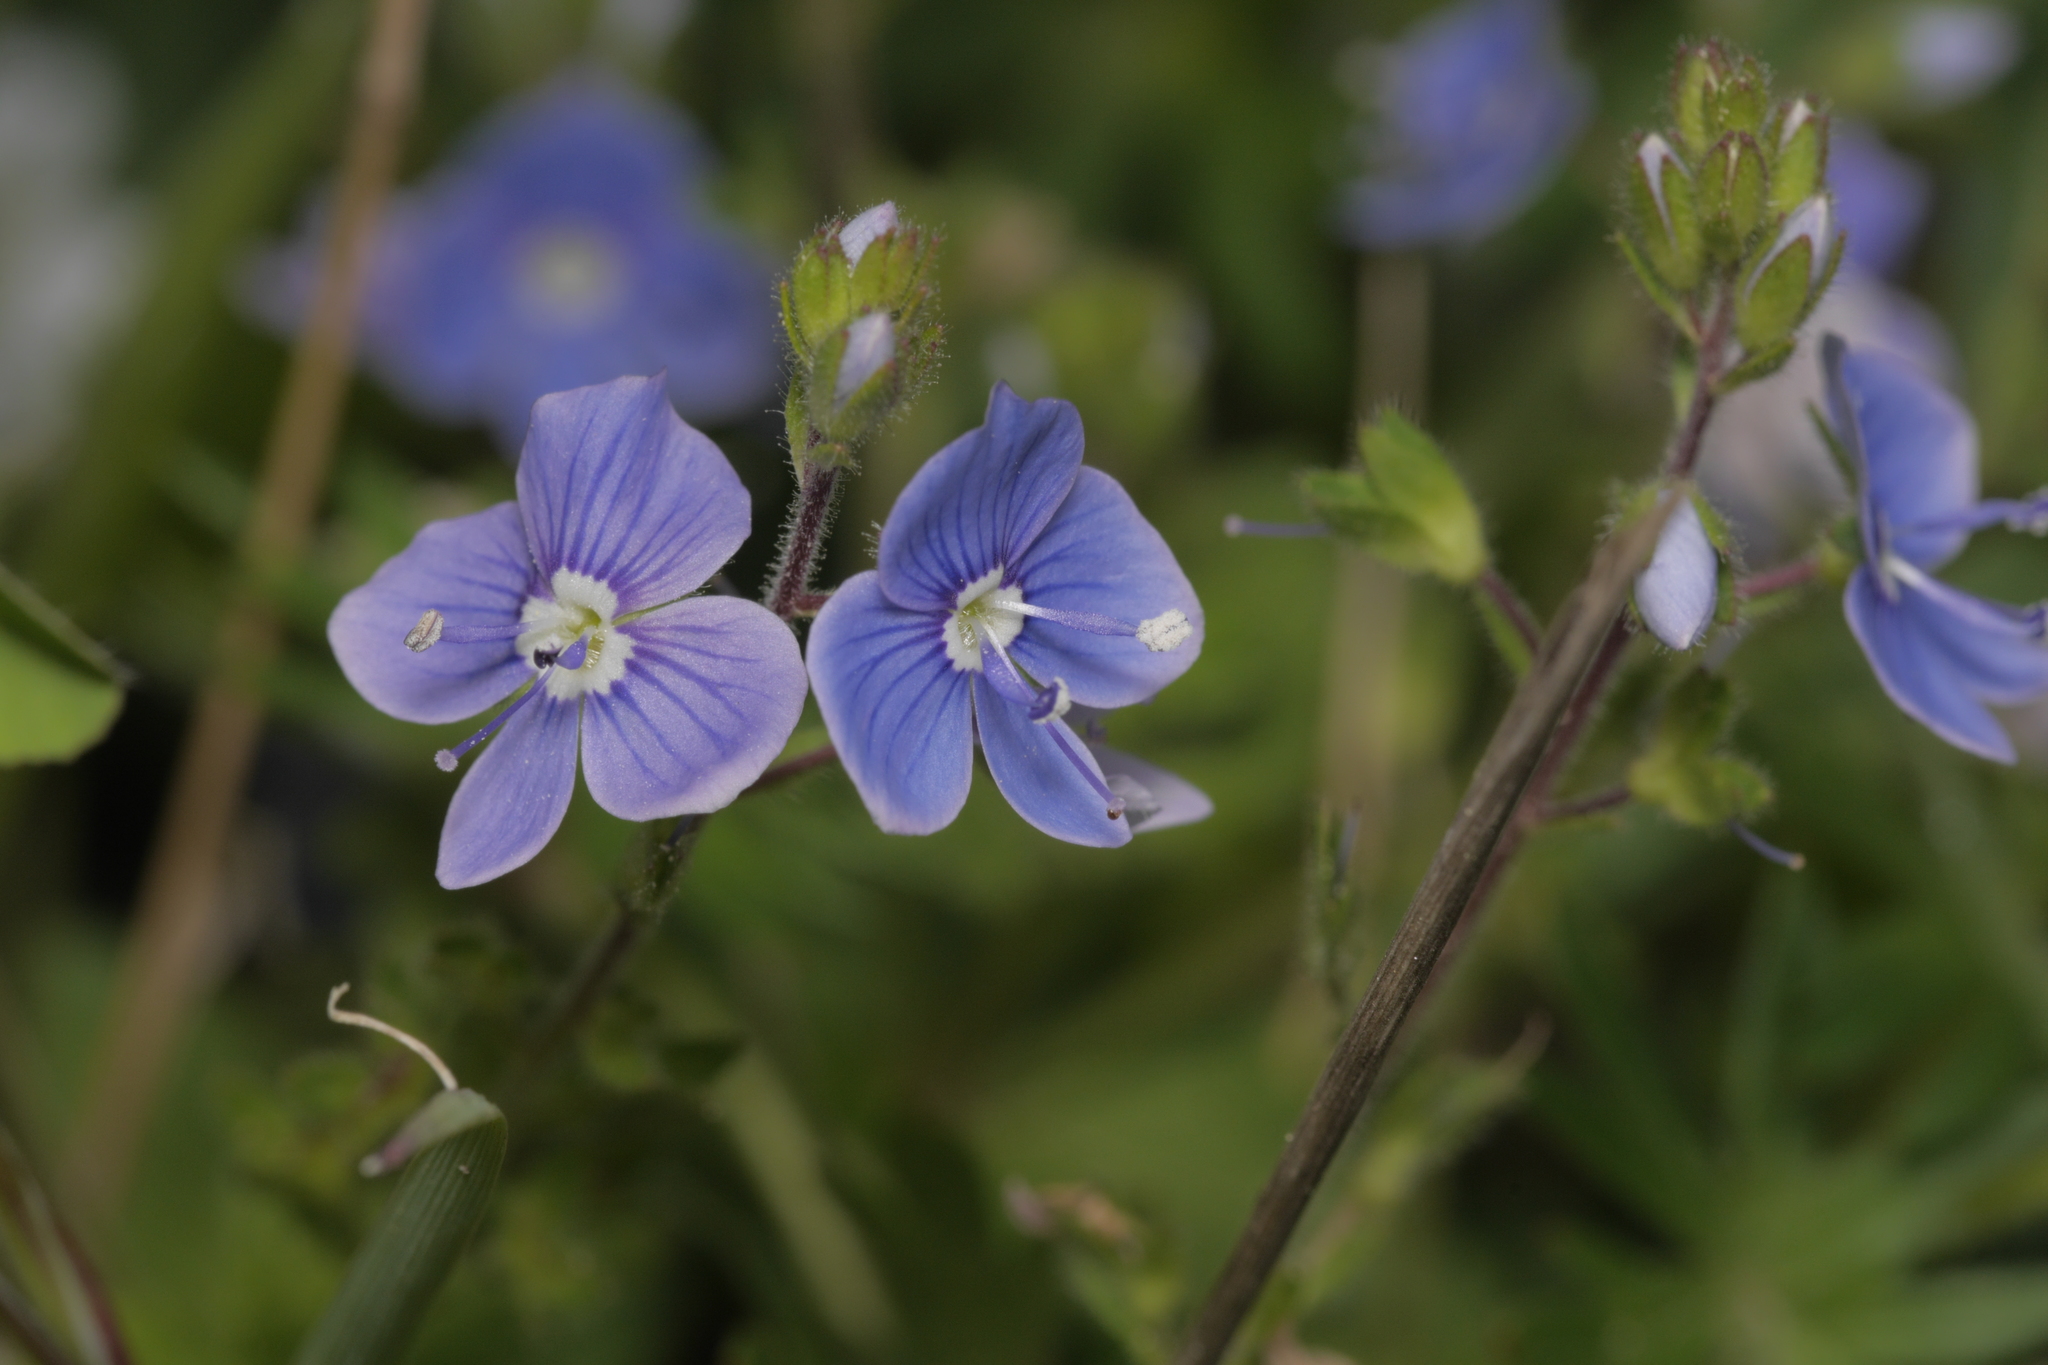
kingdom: Plantae
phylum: Tracheophyta
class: Magnoliopsida
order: Lamiales
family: Plantaginaceae
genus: Veronica
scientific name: Veronica chamaedrys
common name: Germander speedwell
